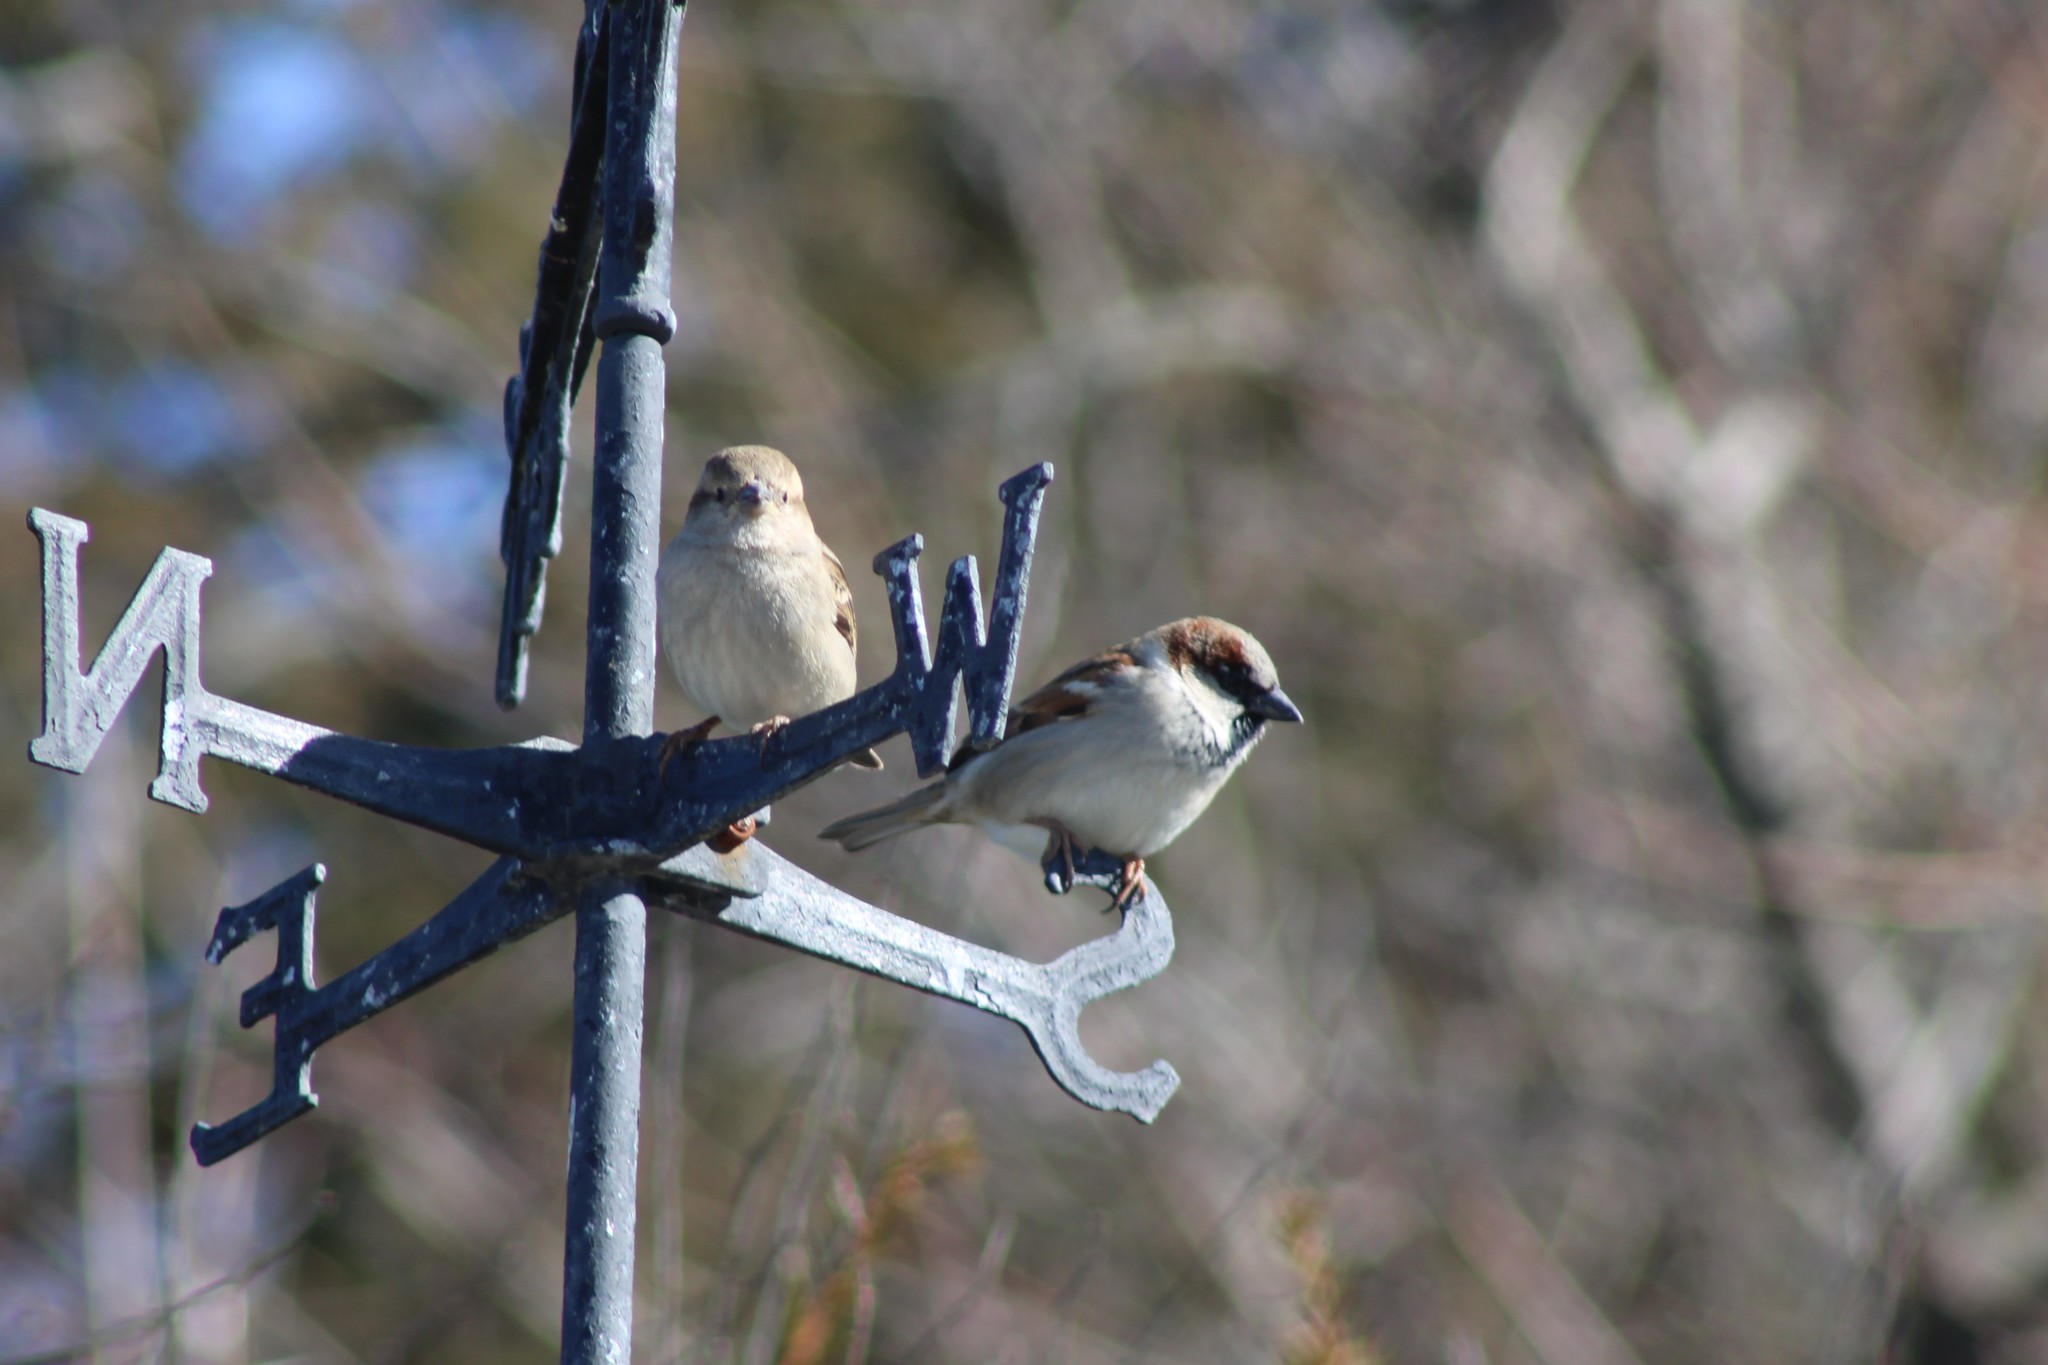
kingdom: Animalia
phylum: Chordata
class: Aves
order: Passeriformes
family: Passeridae
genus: Passer
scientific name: Passer domesticus
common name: House sparrow
